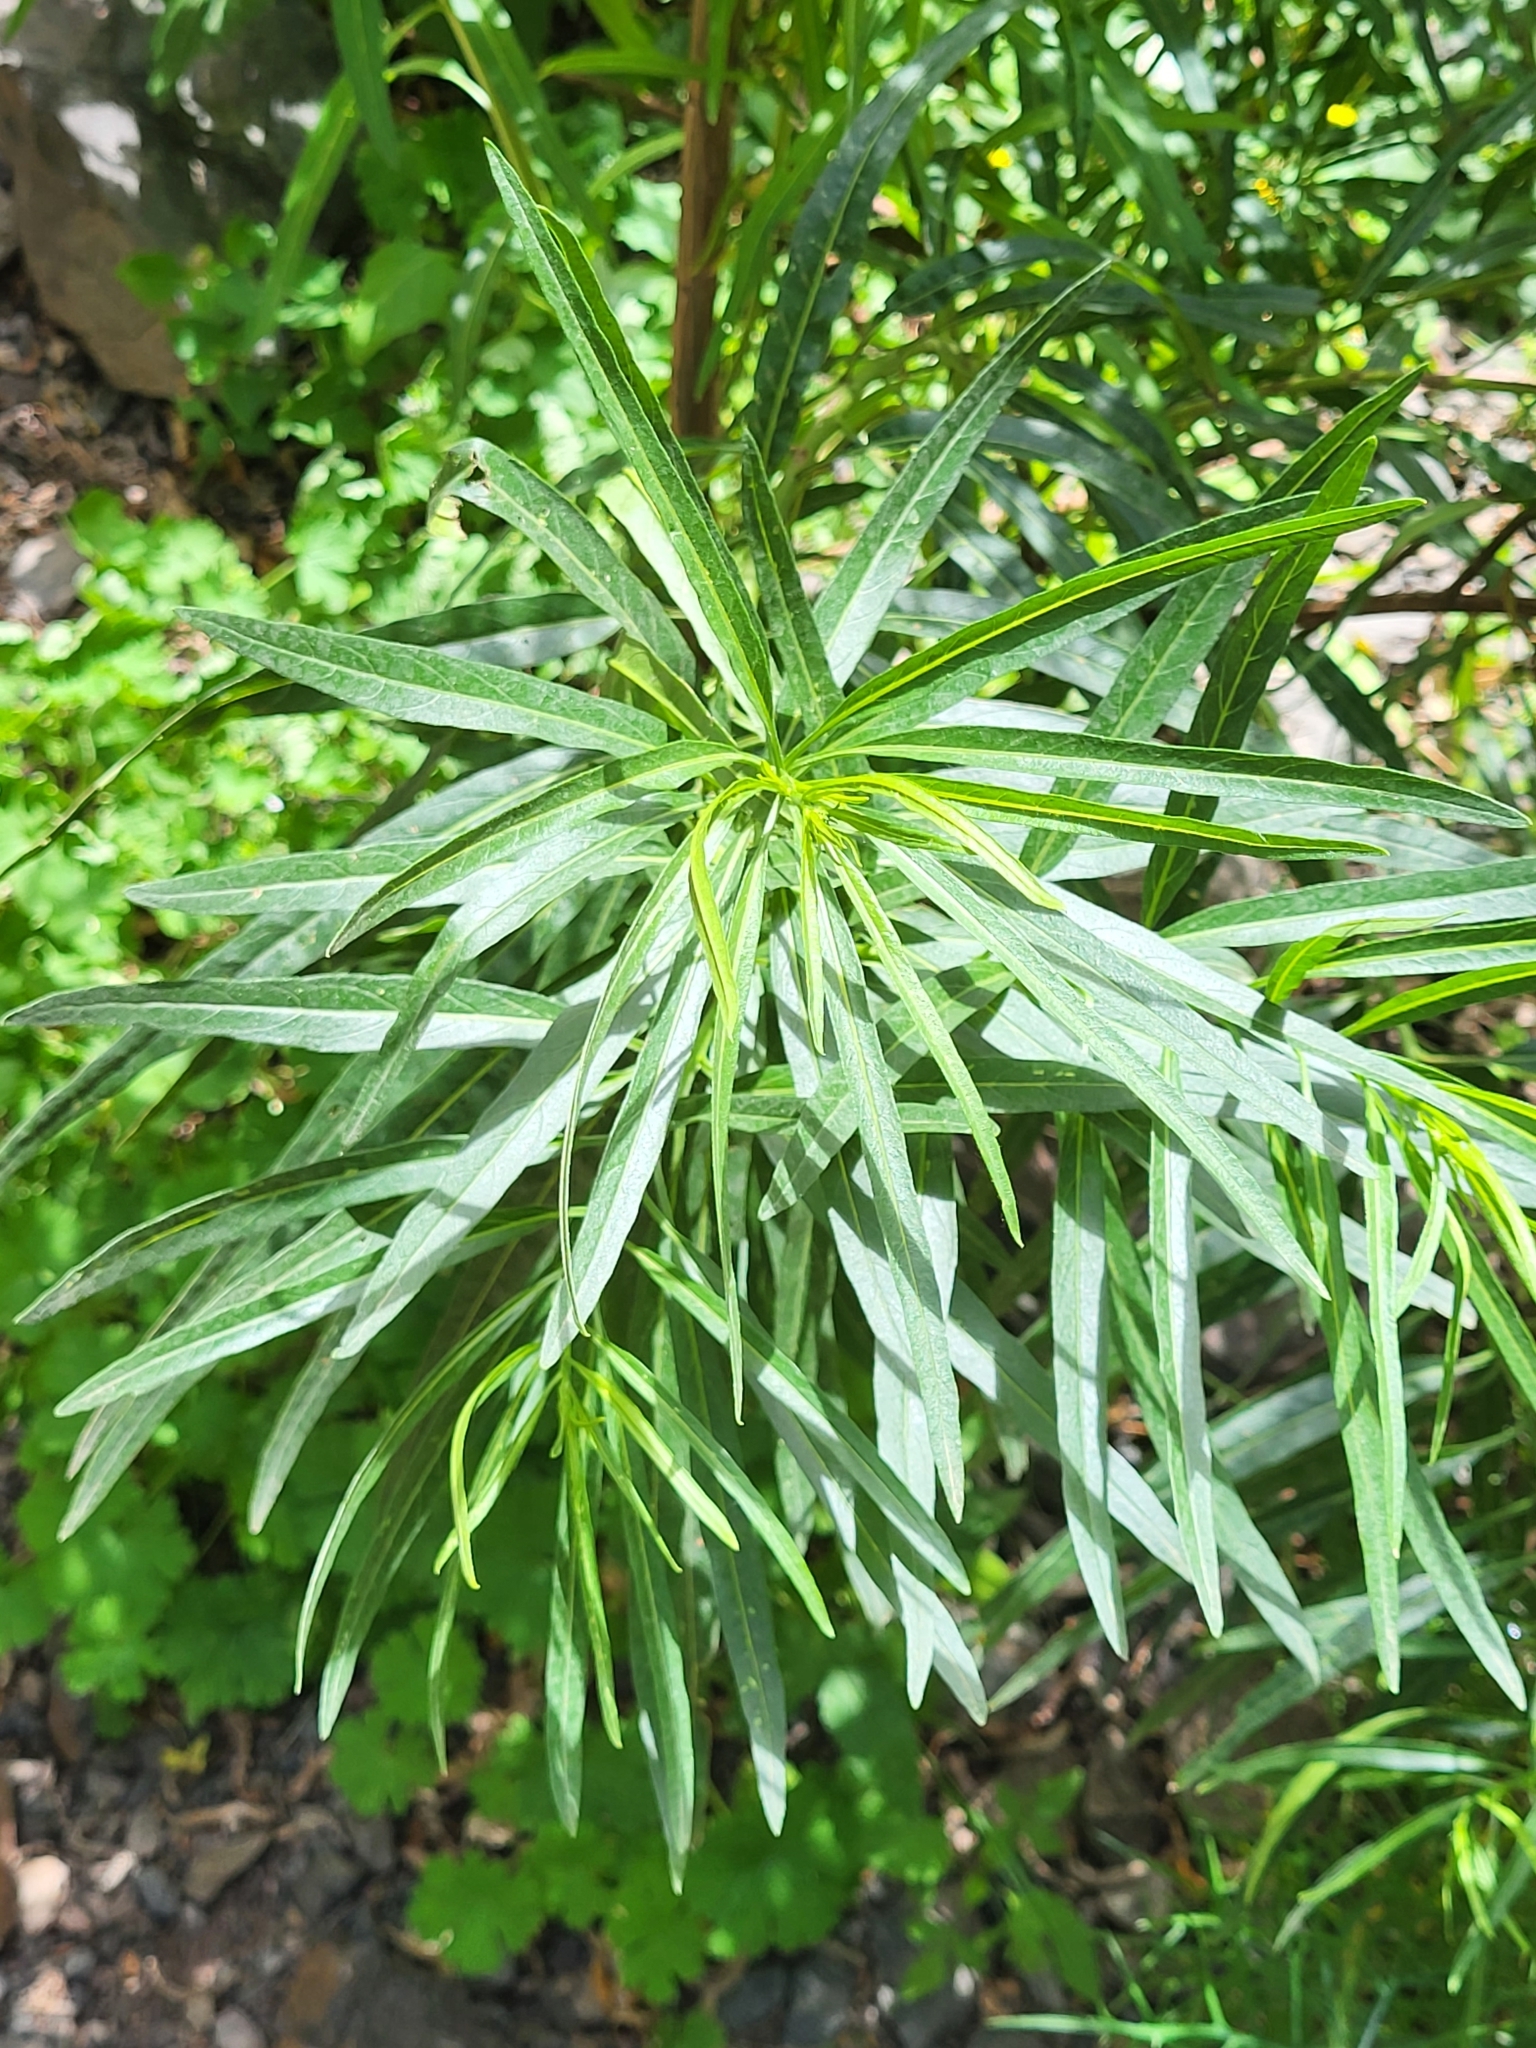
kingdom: Plantae
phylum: Tracheophyta
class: Magnoliopsida
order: Boraginales
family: Heliotropiaceae
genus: Heliotropium
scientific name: Heliotropium messerschmidioides
